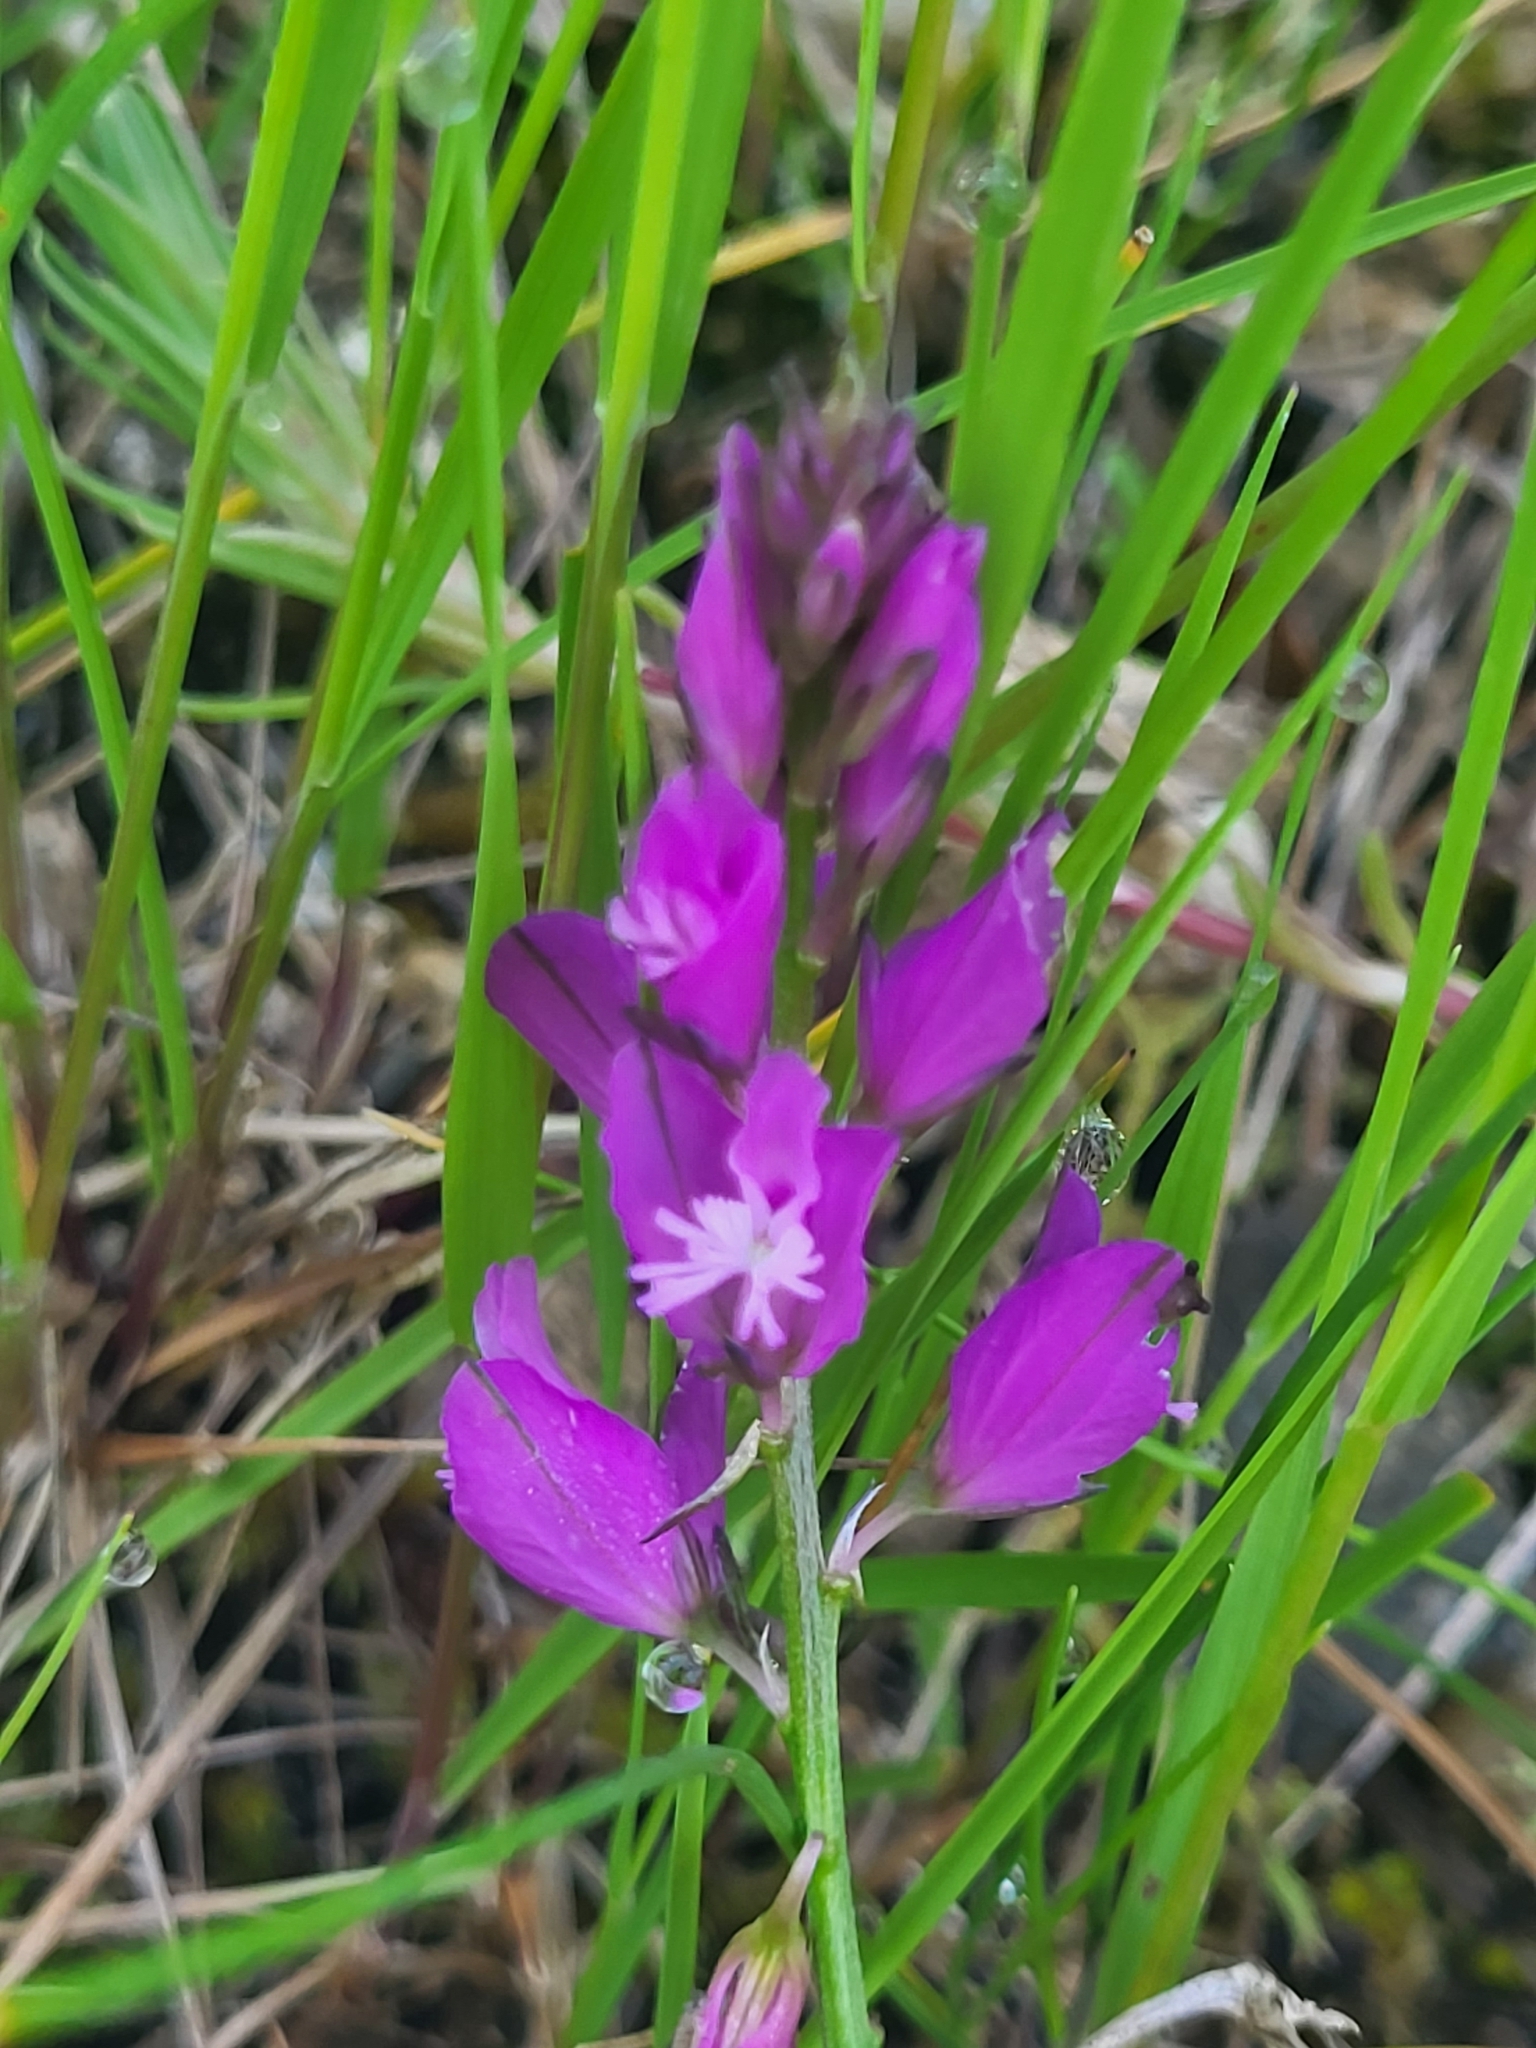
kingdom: Plantae
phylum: Tracheophyta
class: Magnoliopsida
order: Fabales
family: Polygalaceae
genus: Polygala
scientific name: Polygala nicaeensis
